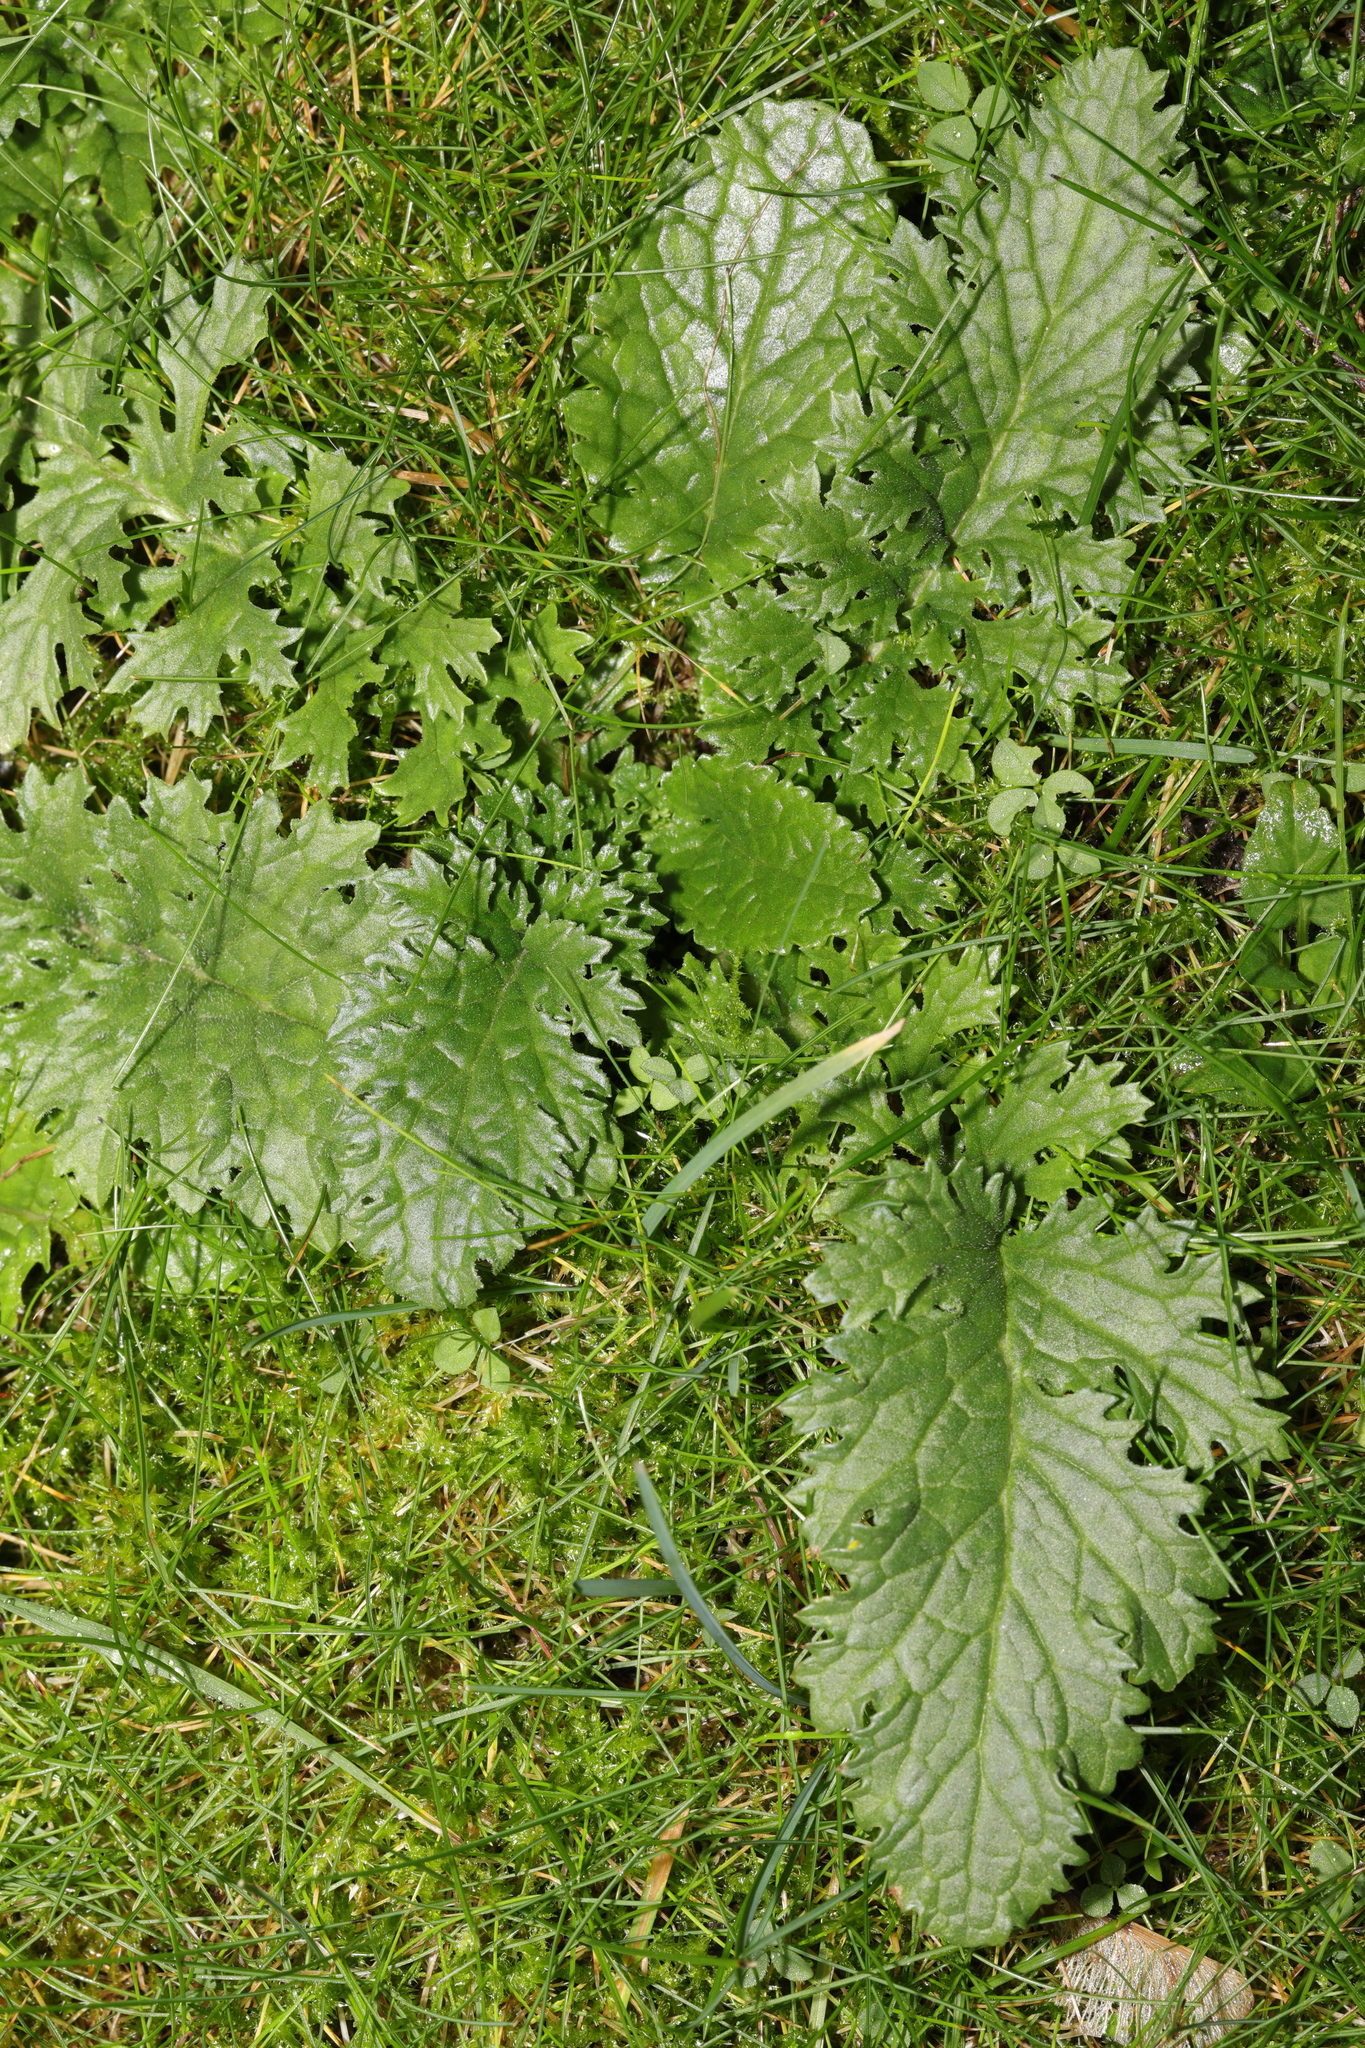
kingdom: Plantae
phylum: Tracheophyta
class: Magnoliopsida
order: Asterales
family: Asteraceae
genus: Jacobaea
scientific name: Jacobaea vulgaris
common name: Stinking willie
